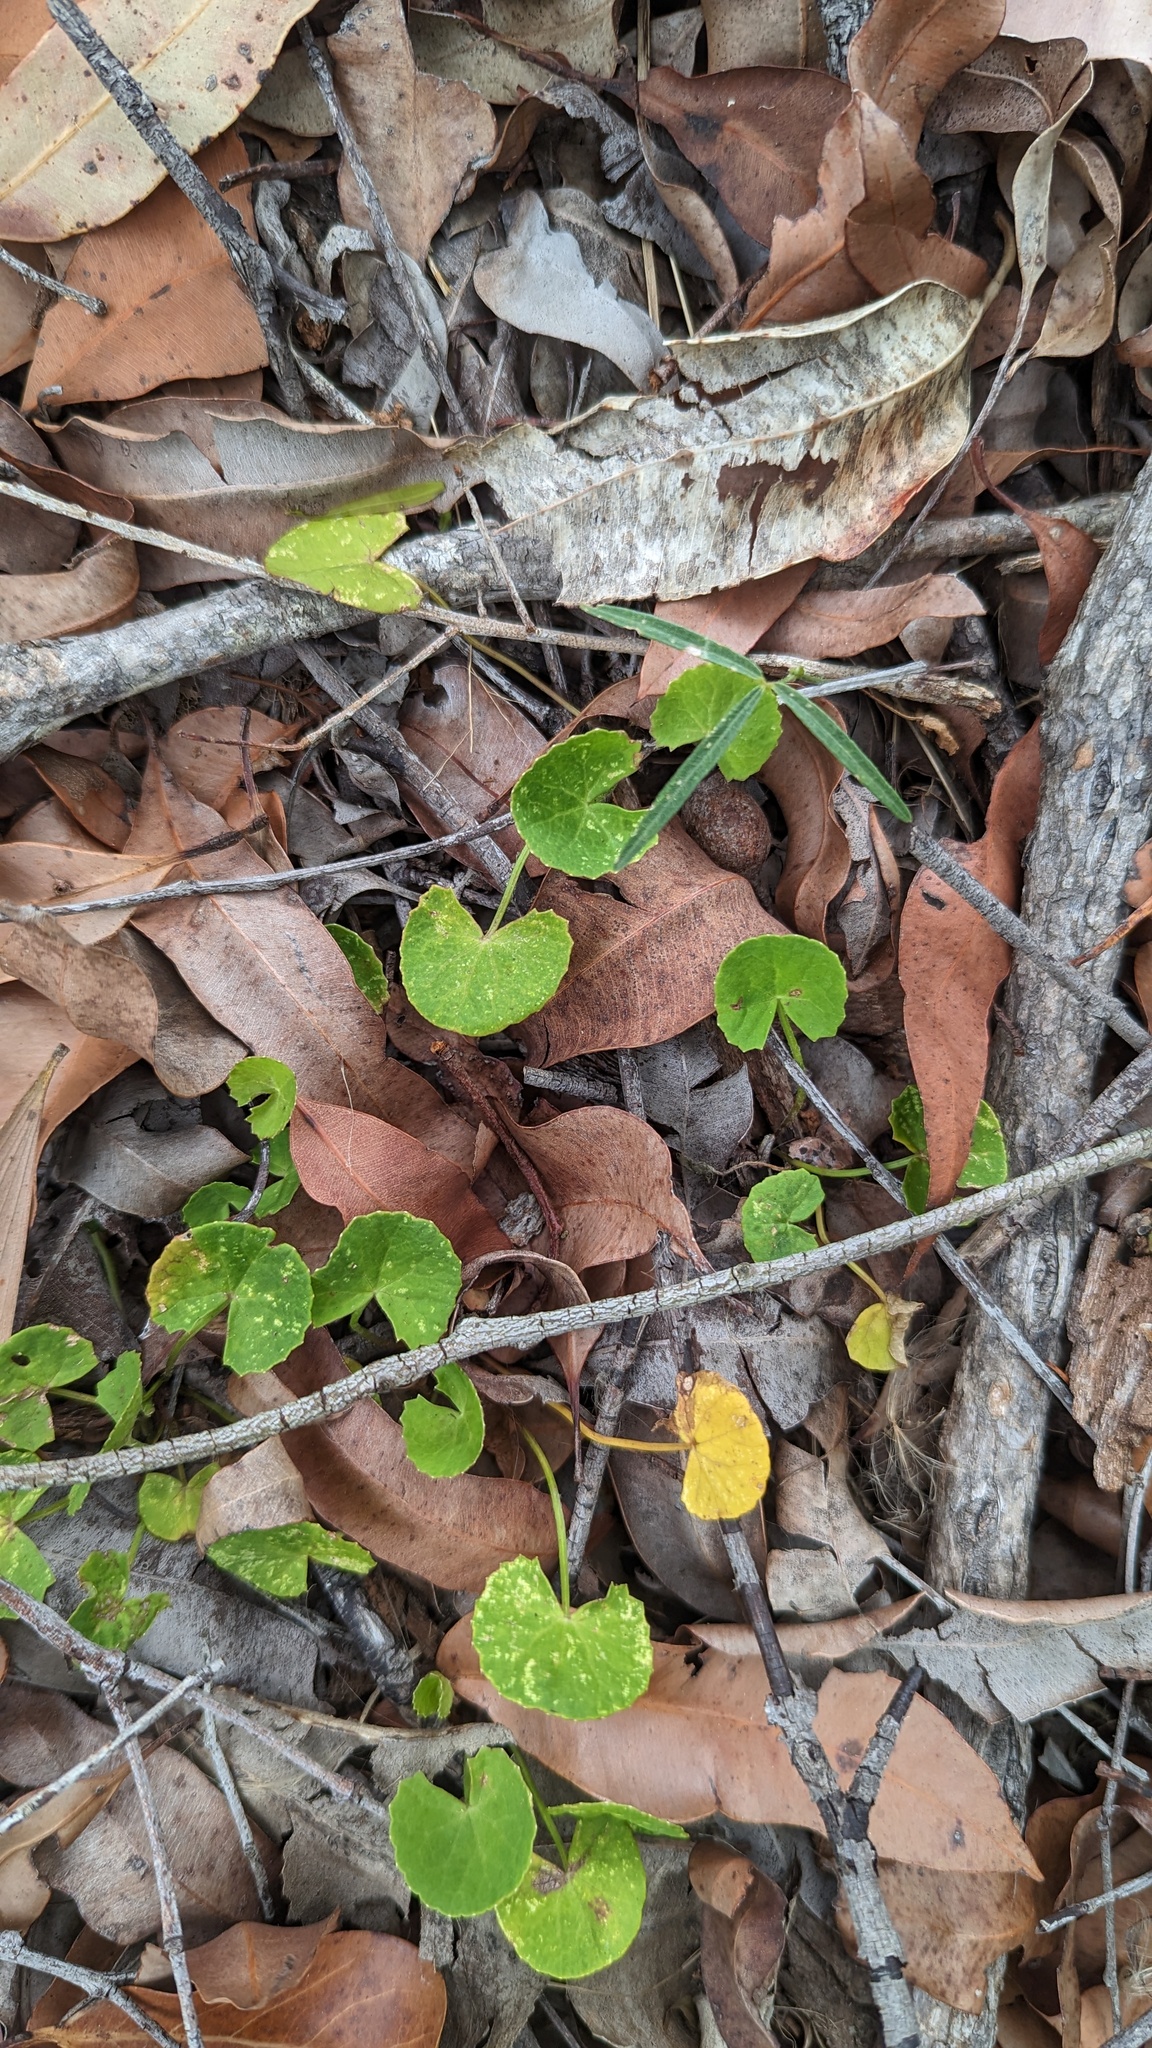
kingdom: Plantae
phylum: Tracheophyta
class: Magnoliopsida
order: Apiales
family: Apiaceae
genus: Centella
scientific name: Centella asiatica
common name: Spadeleaf
